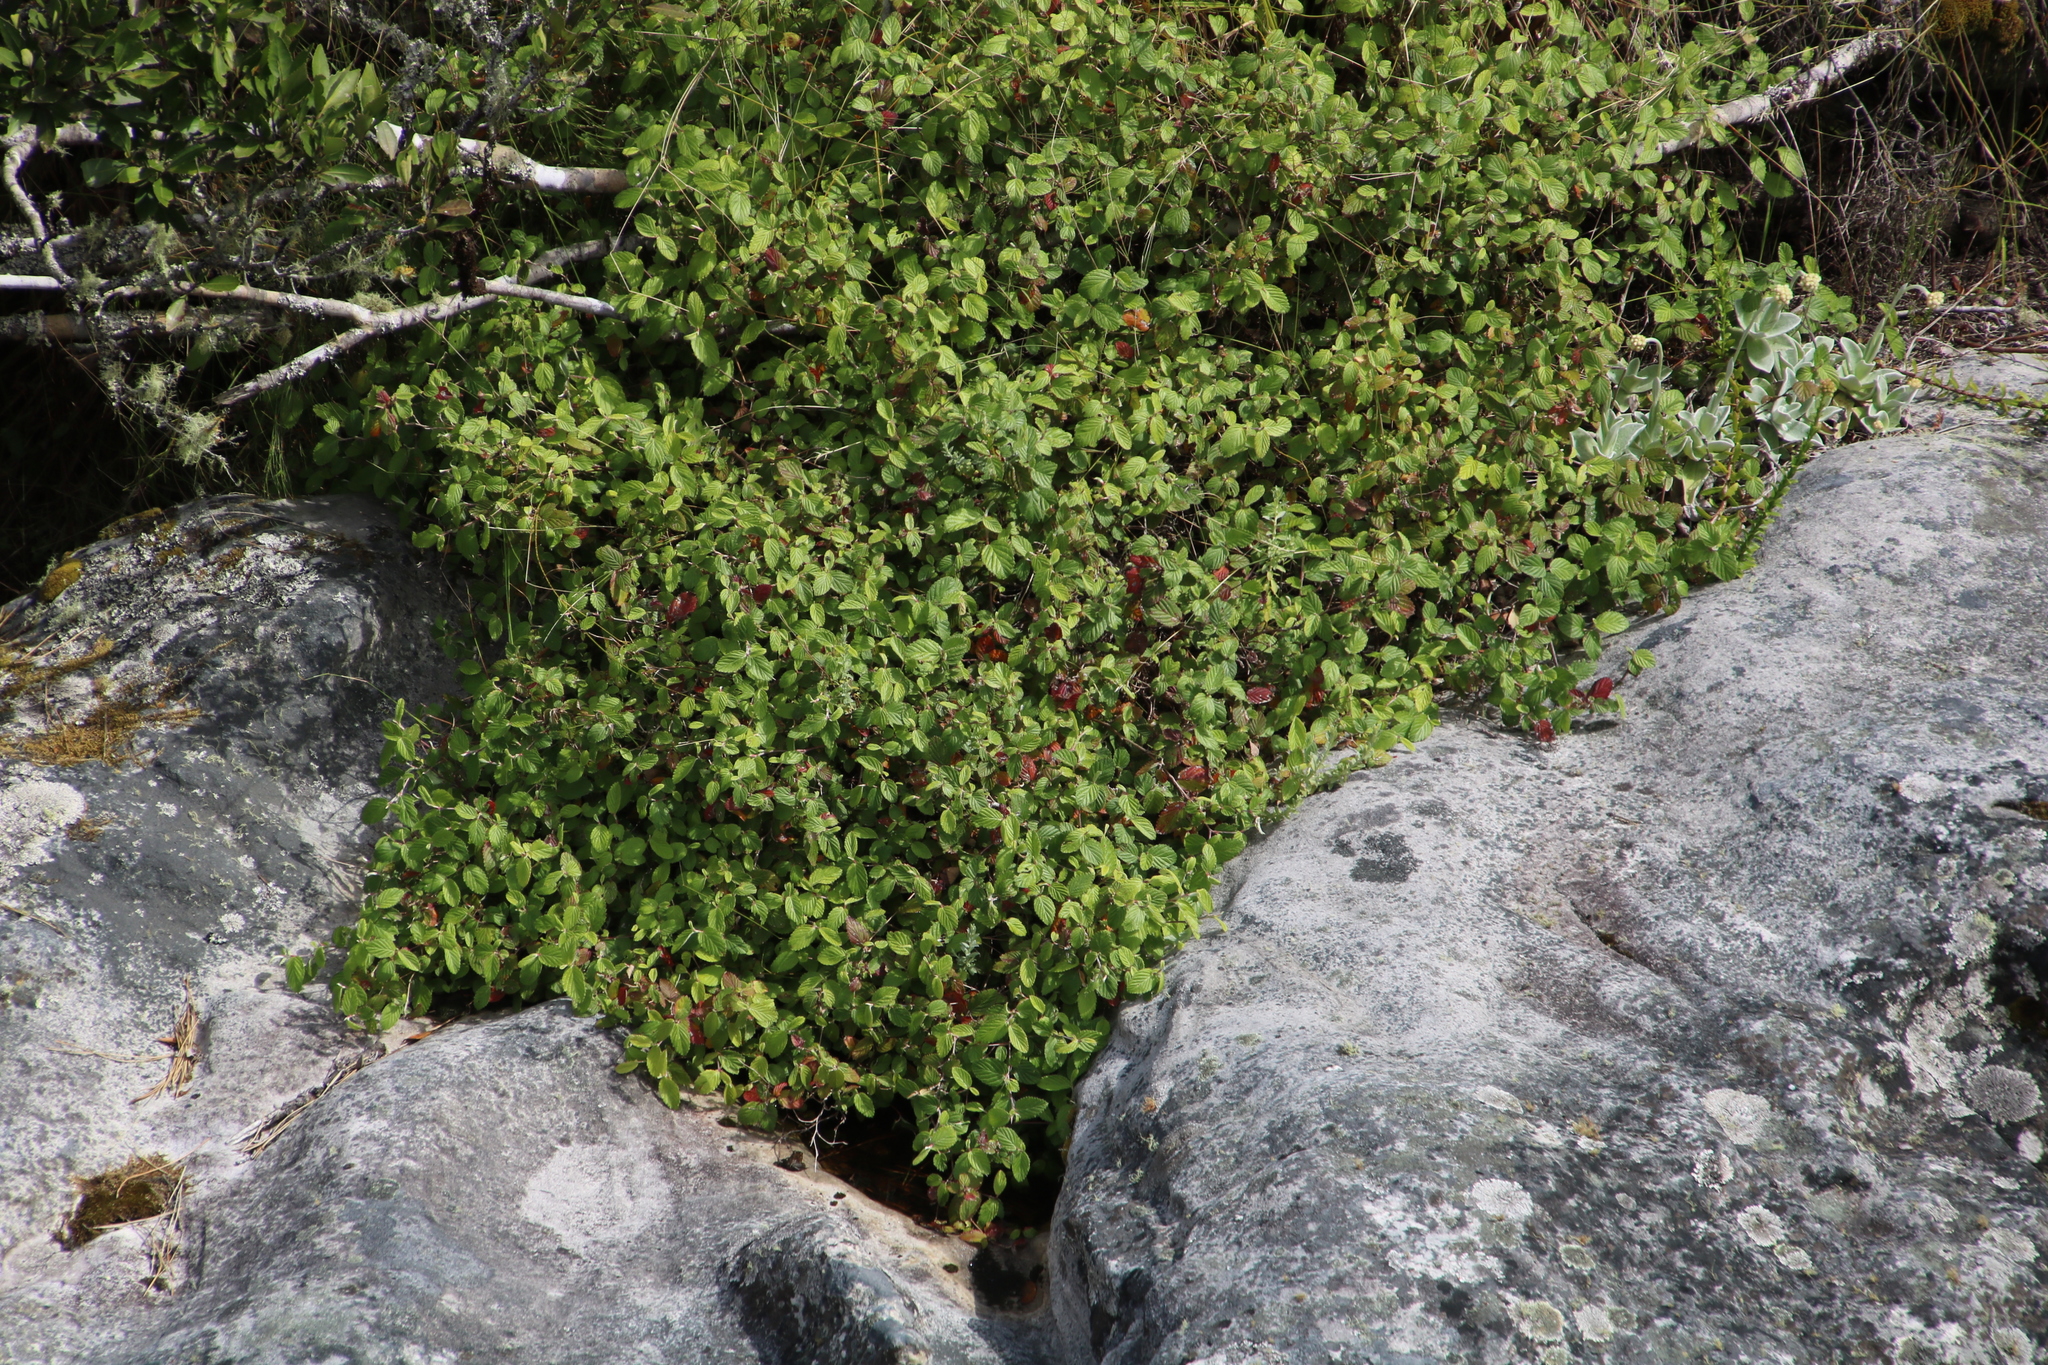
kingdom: Plantae
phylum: Tracheophyta
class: Magnoliopsida
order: Rosales
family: Rosaceae
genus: Cliffortia
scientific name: Cliffortia odorata
